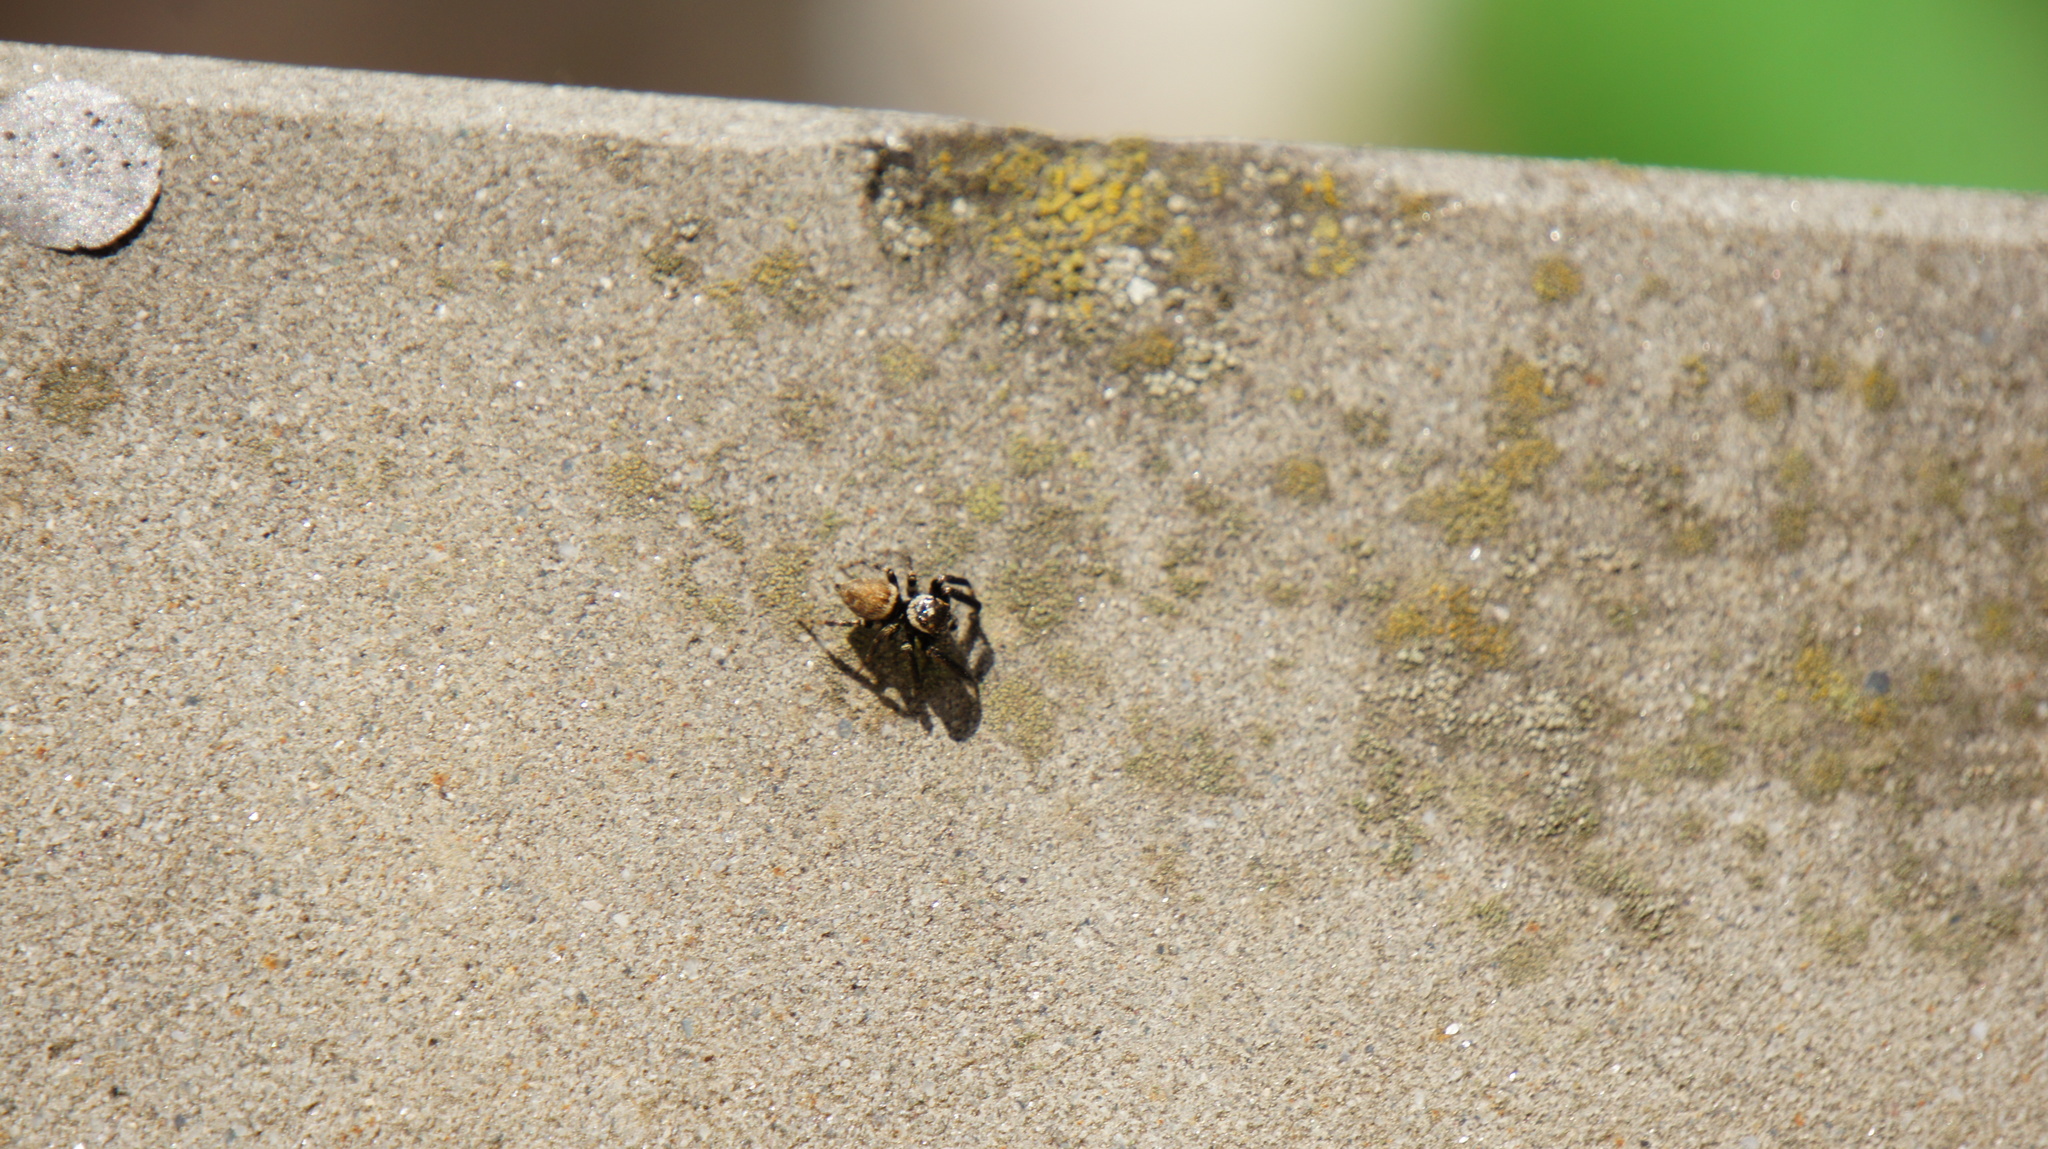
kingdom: Animalia
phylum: Arthropoda
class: Arachnida
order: Araneae
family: Salticidae
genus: Evarcha
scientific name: Evarcha jucunda
